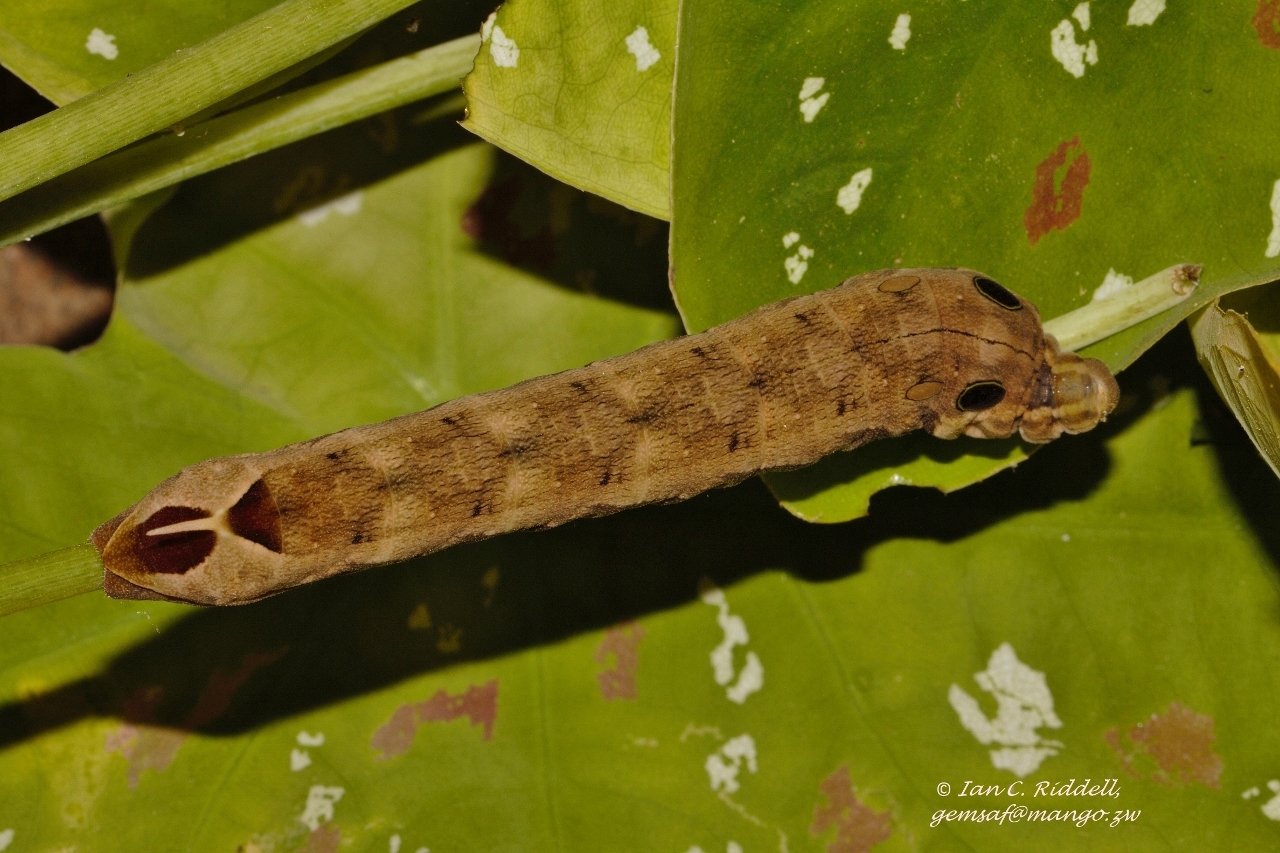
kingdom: Animalia
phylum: Arthropoda
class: Insecta
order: Lepidoptera
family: Sphingidae
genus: Hippotion
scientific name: Hippotion eson
